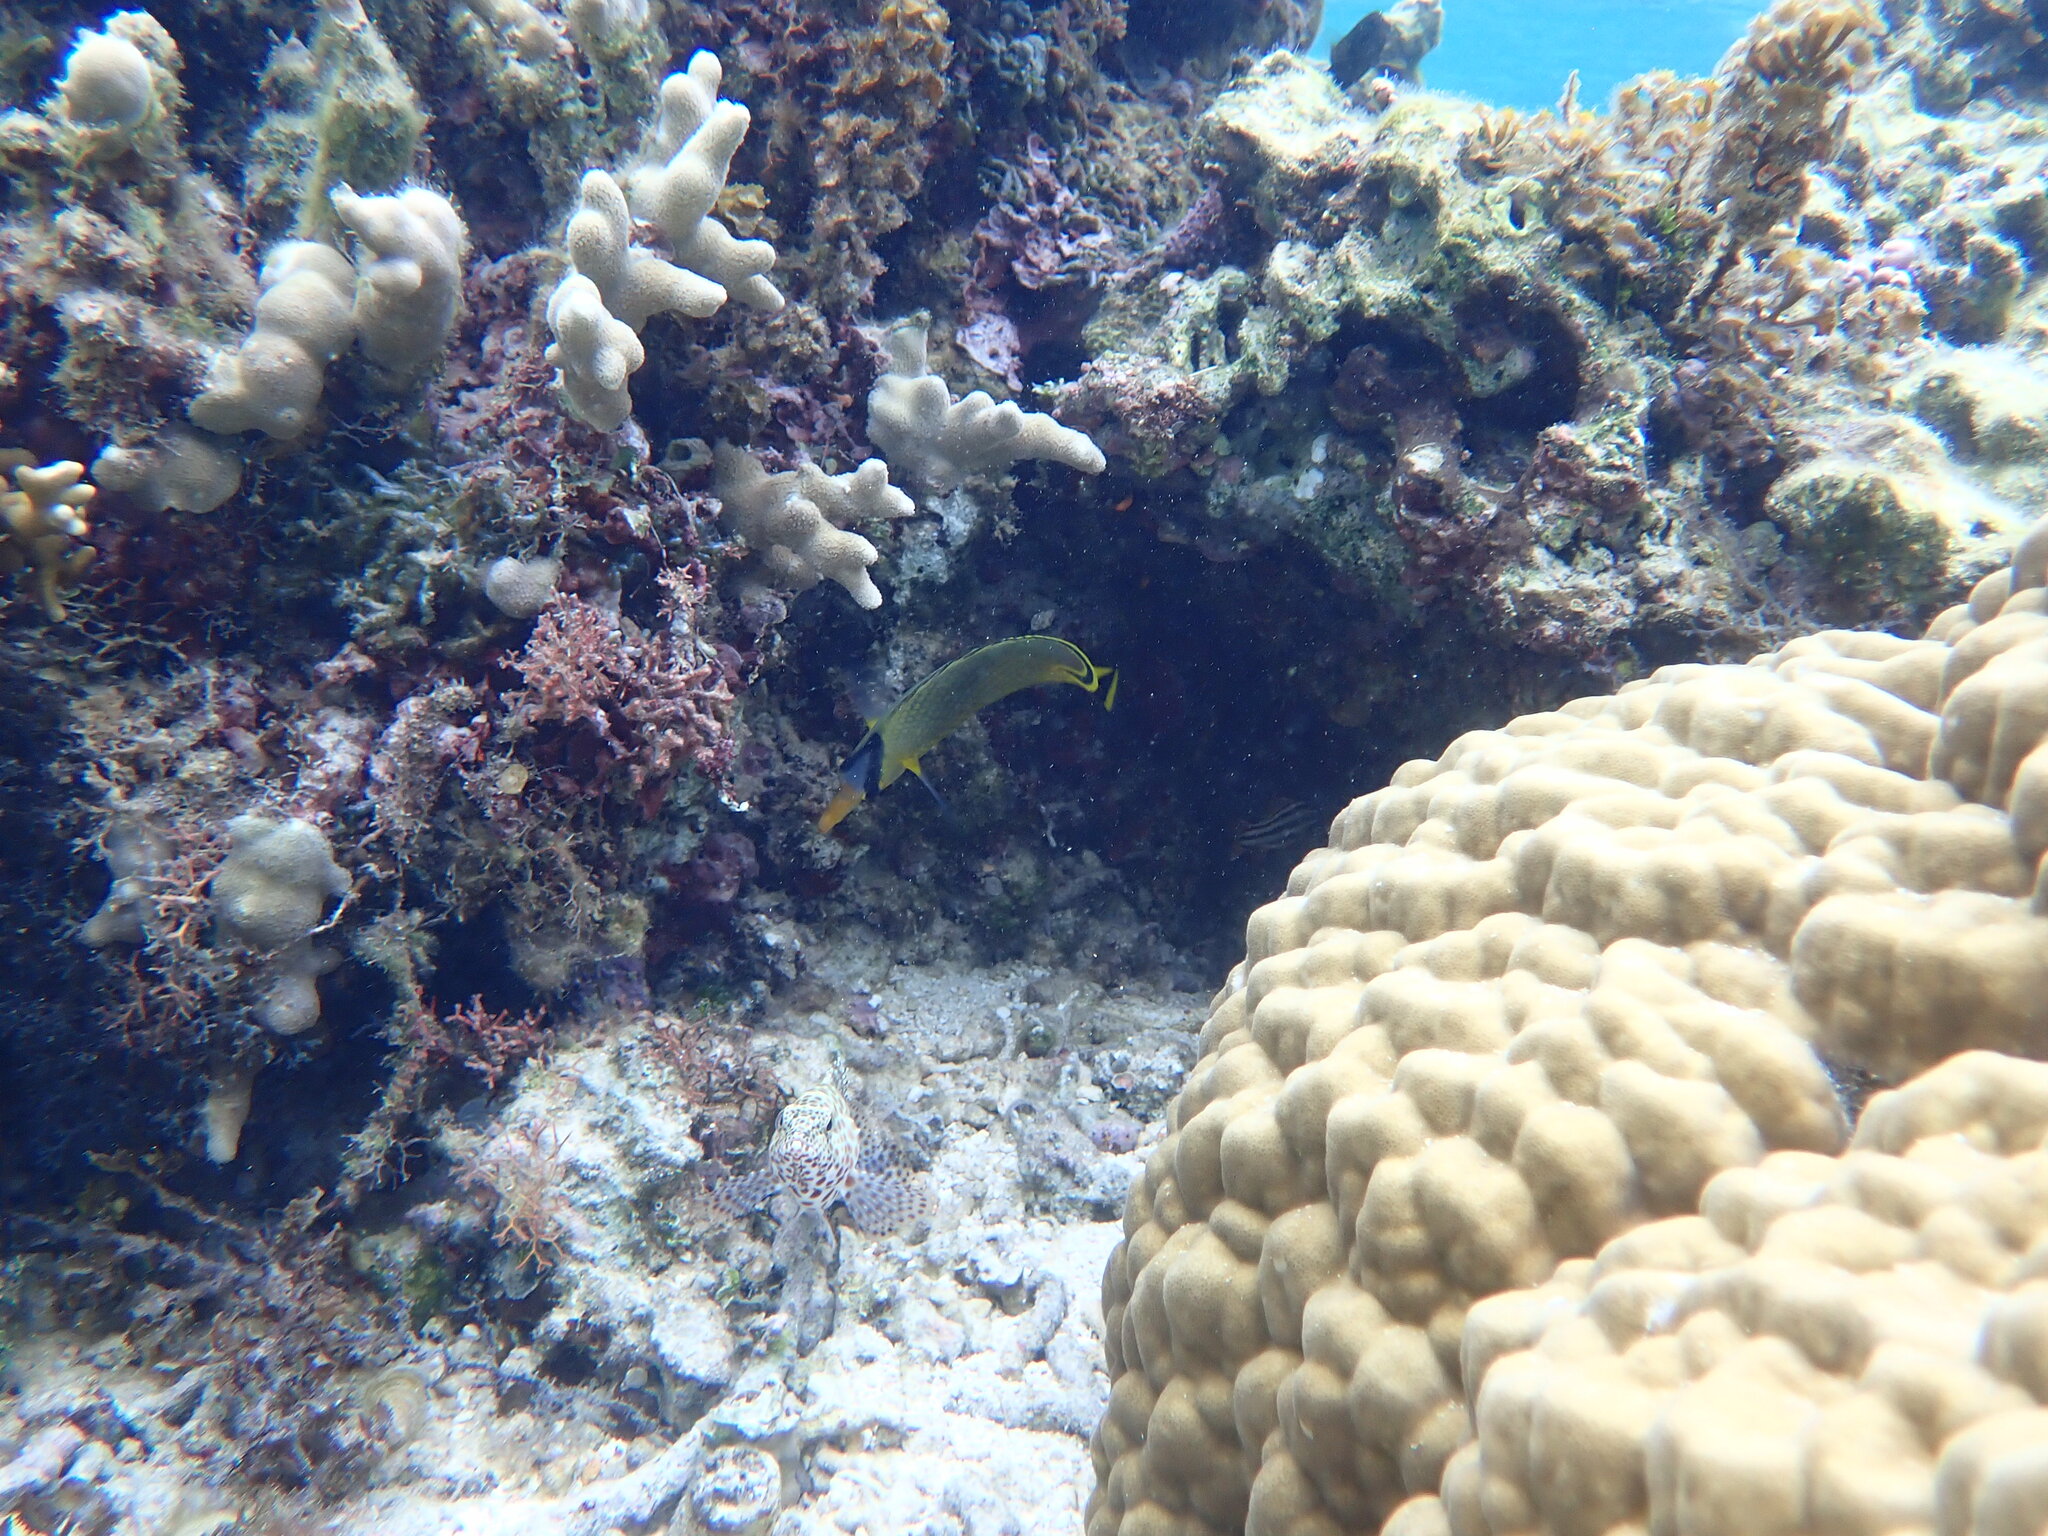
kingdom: Animalia
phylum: Chordata
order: Perciformes
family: Chaetodontidae
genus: Chaetodon
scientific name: Chaetodon rafflesii
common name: Latticed butterflyfish
